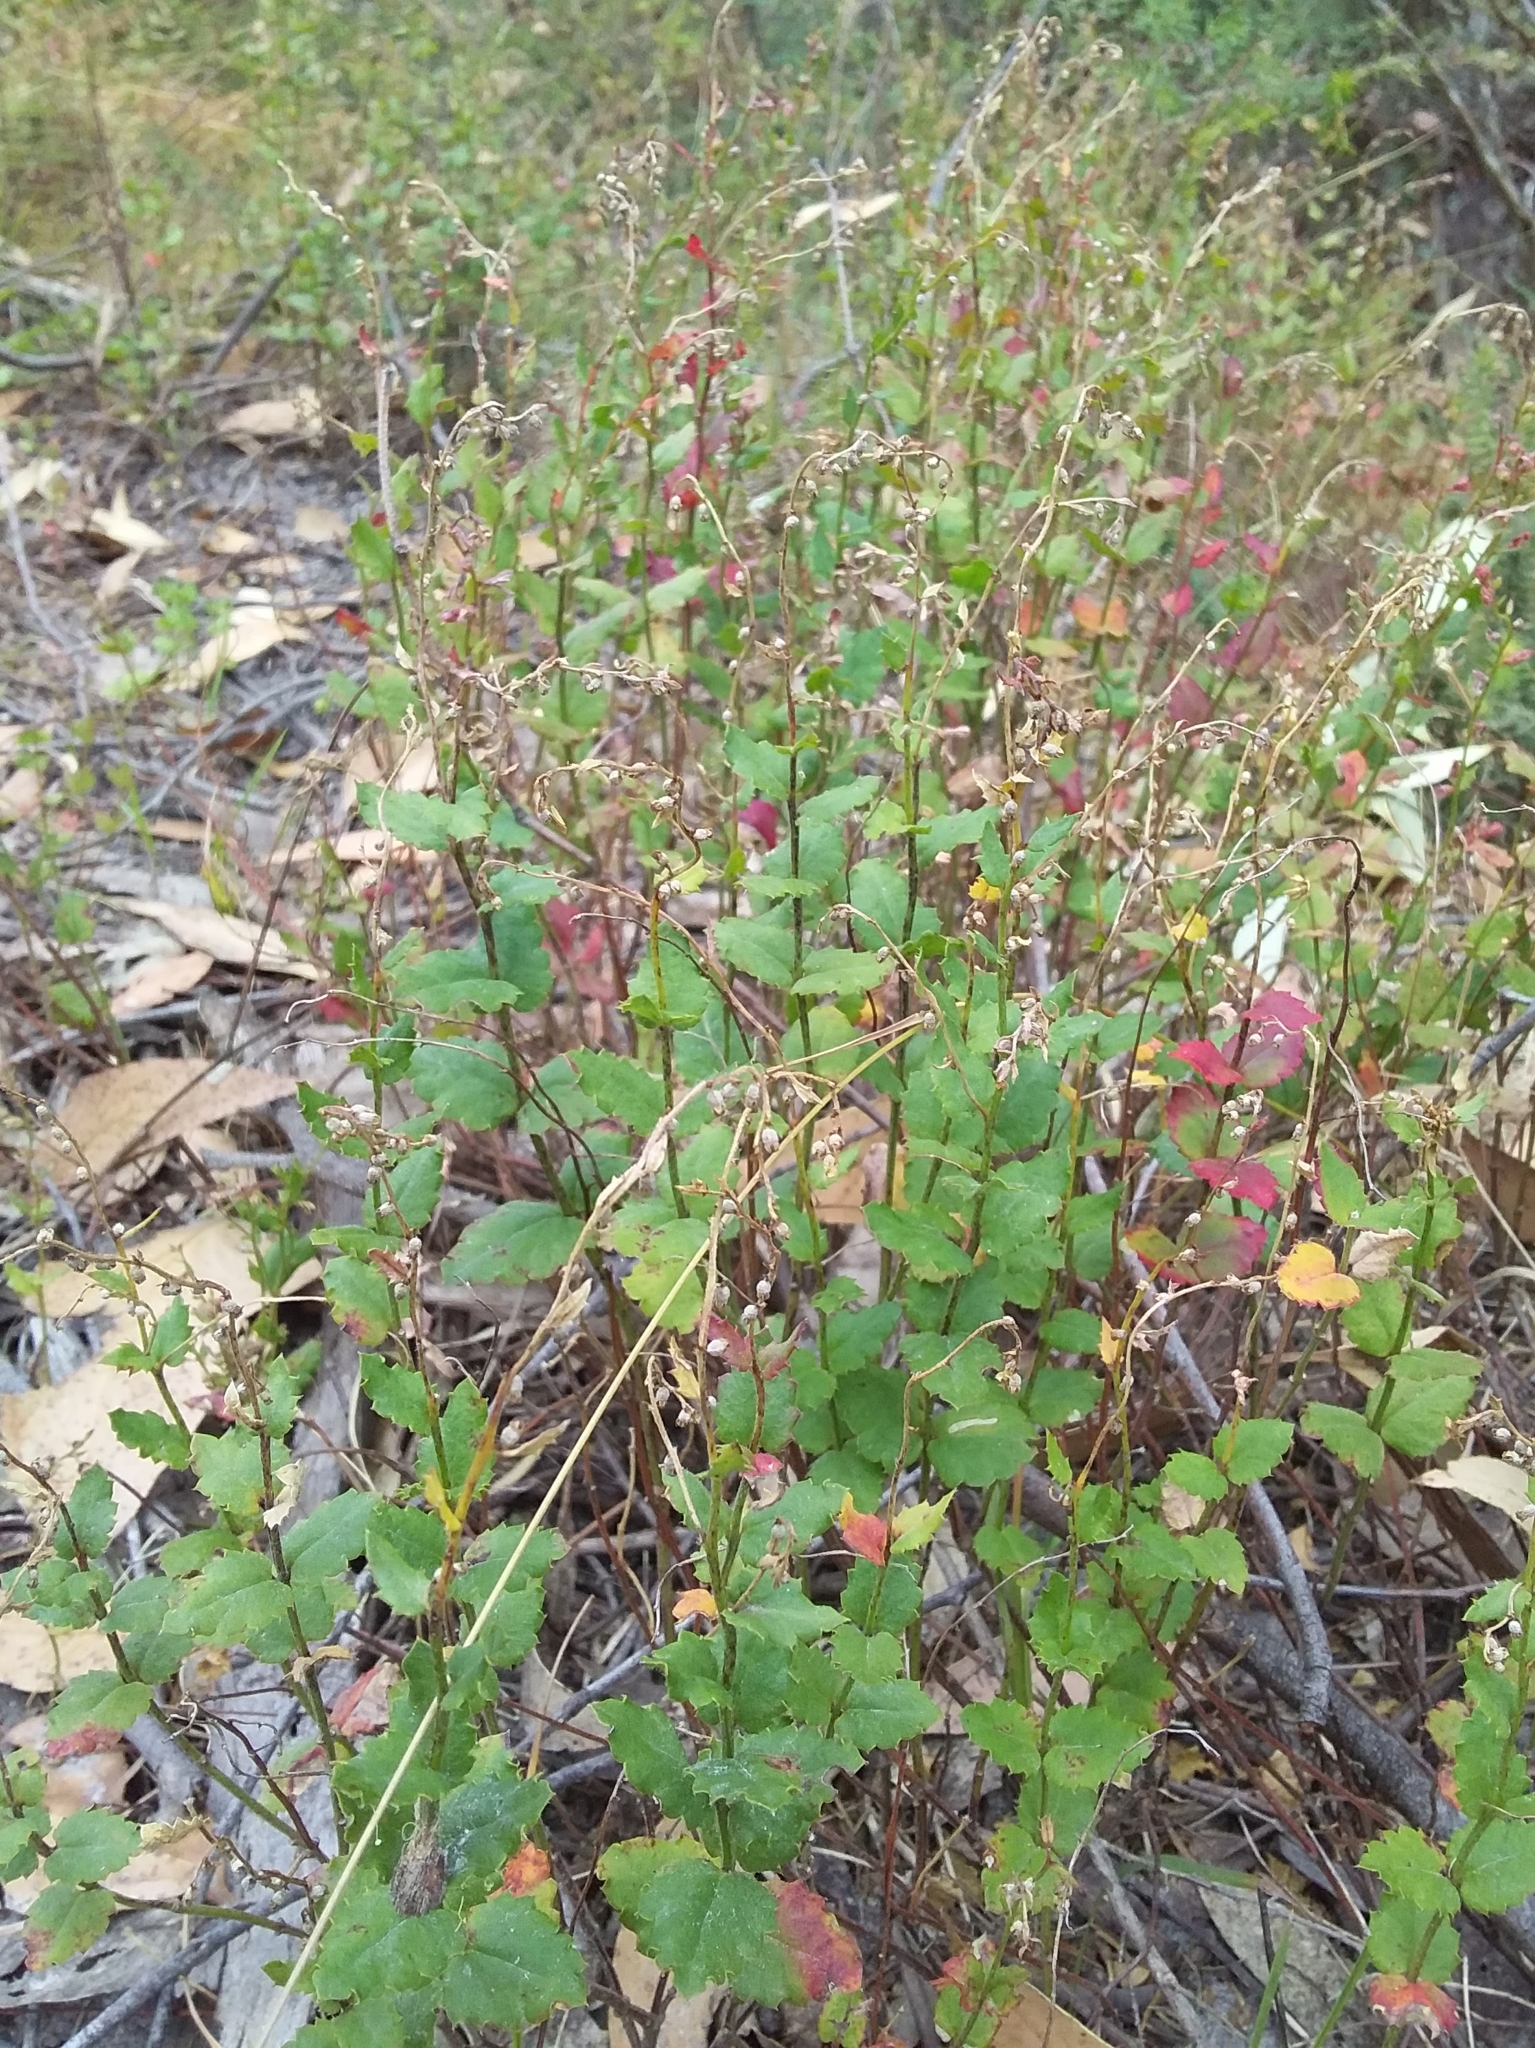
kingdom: Plantae
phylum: Tracheophyta
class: Magnoliopsida
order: Saxifragales
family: Haloragaceae
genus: Gonocarpus
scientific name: Gonocarpus mezianus
